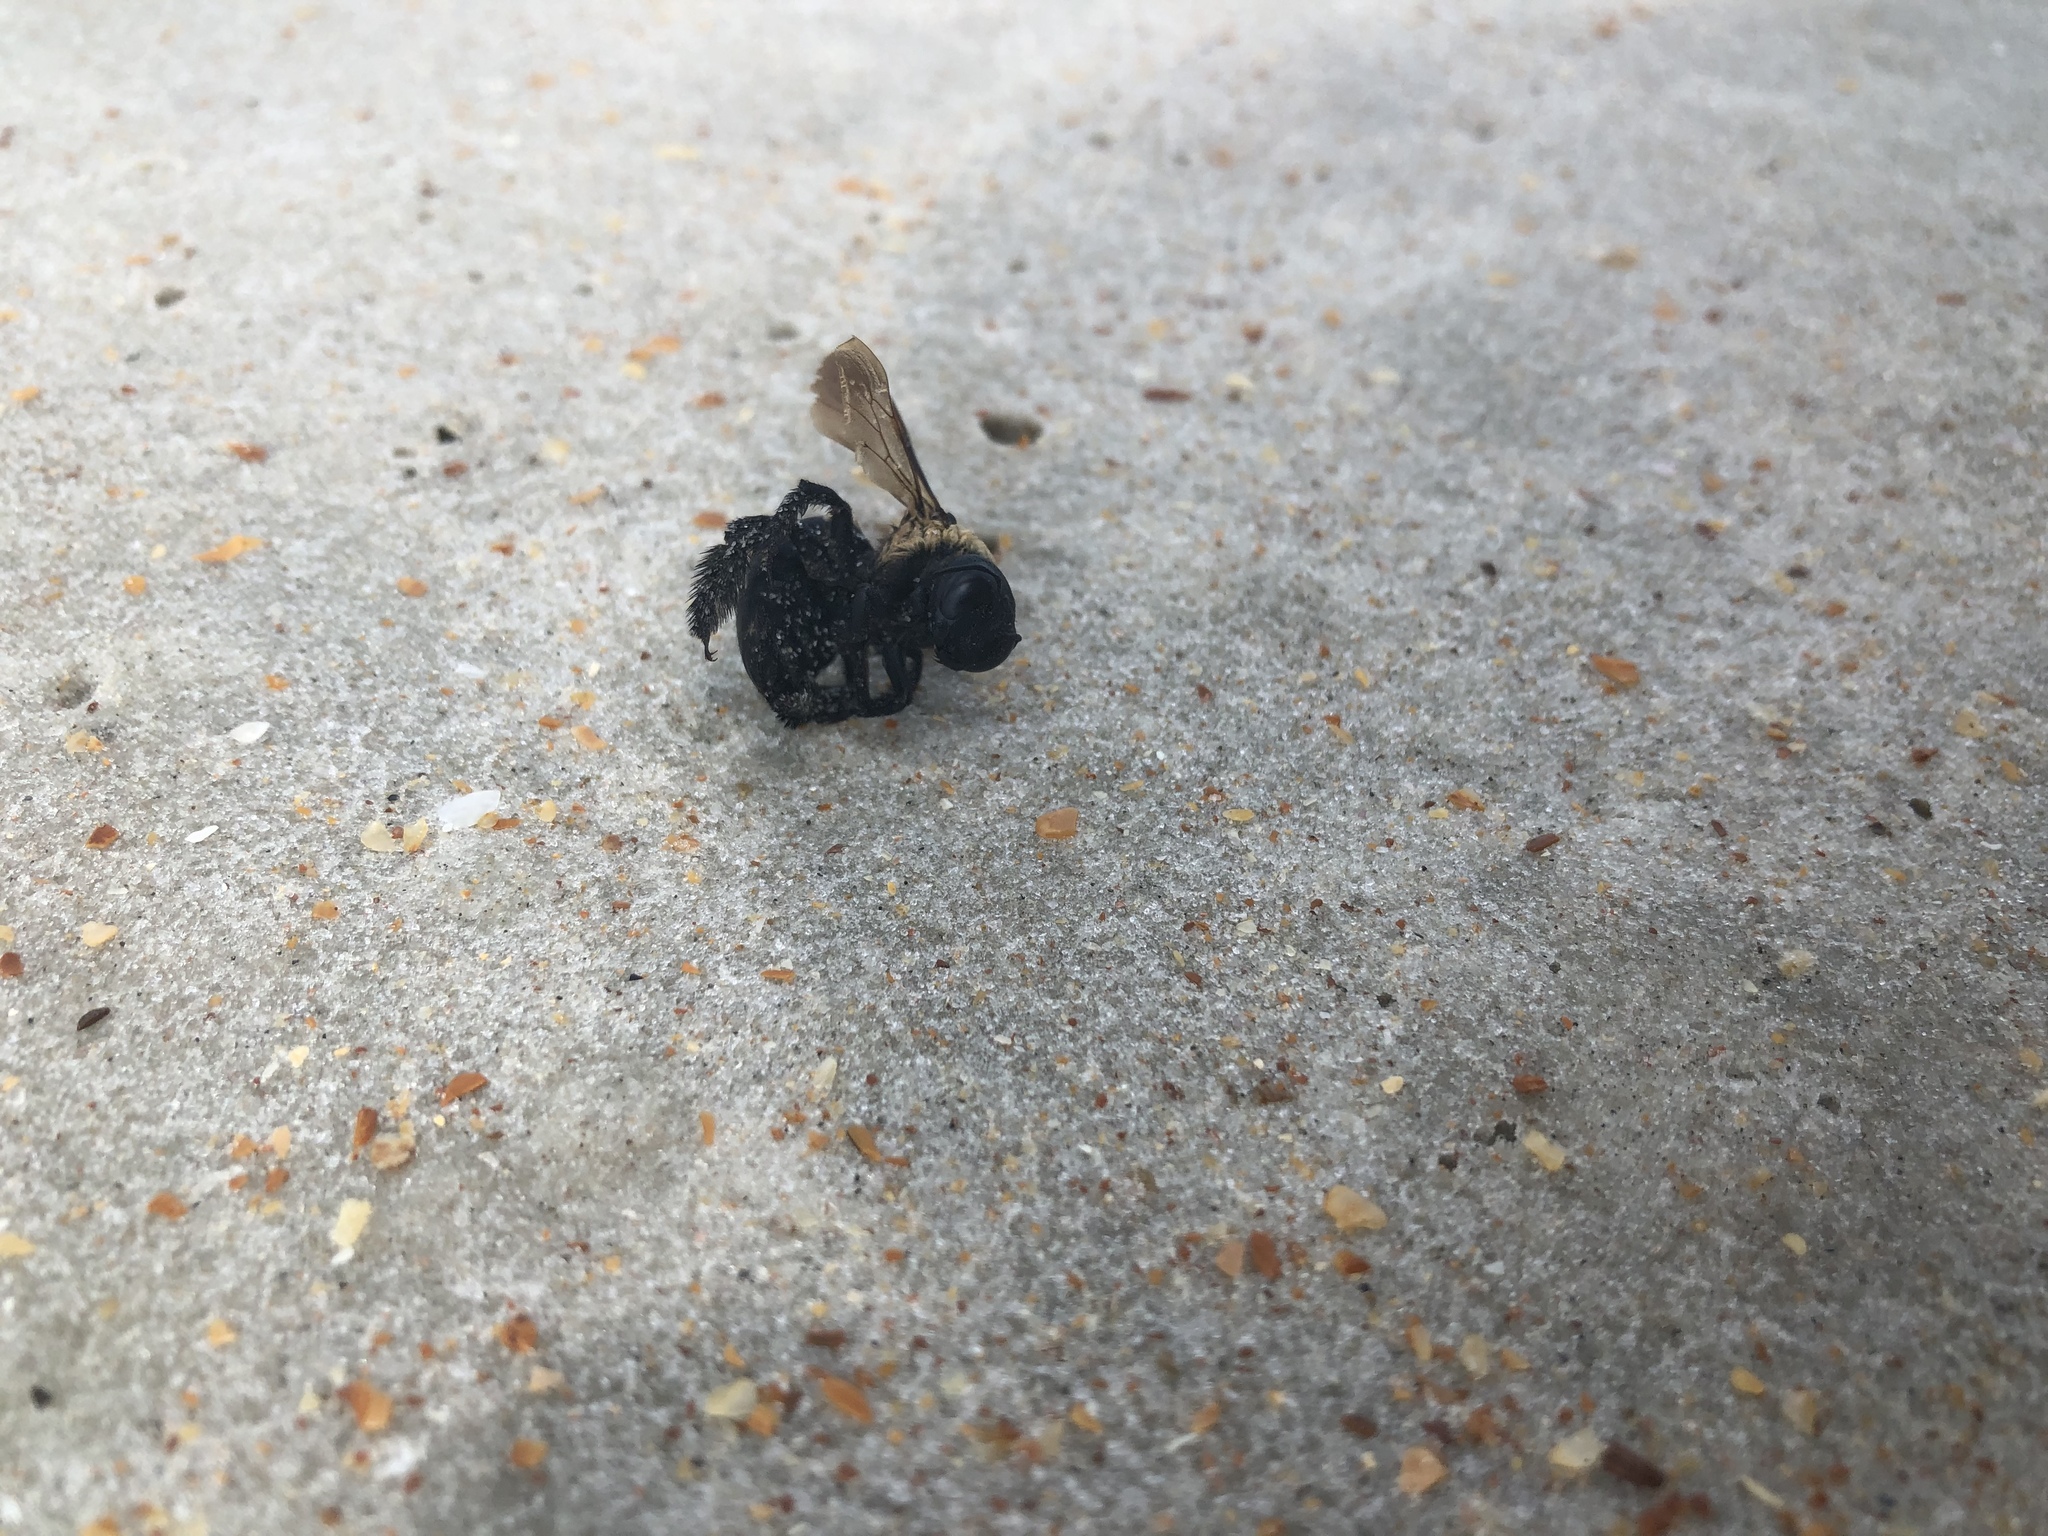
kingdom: Animalia
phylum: Arthropoda
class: Insecta
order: Hymenoptera
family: Apidae
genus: Xylocopa
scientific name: Xylocopa virginica
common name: Carpenter bee
